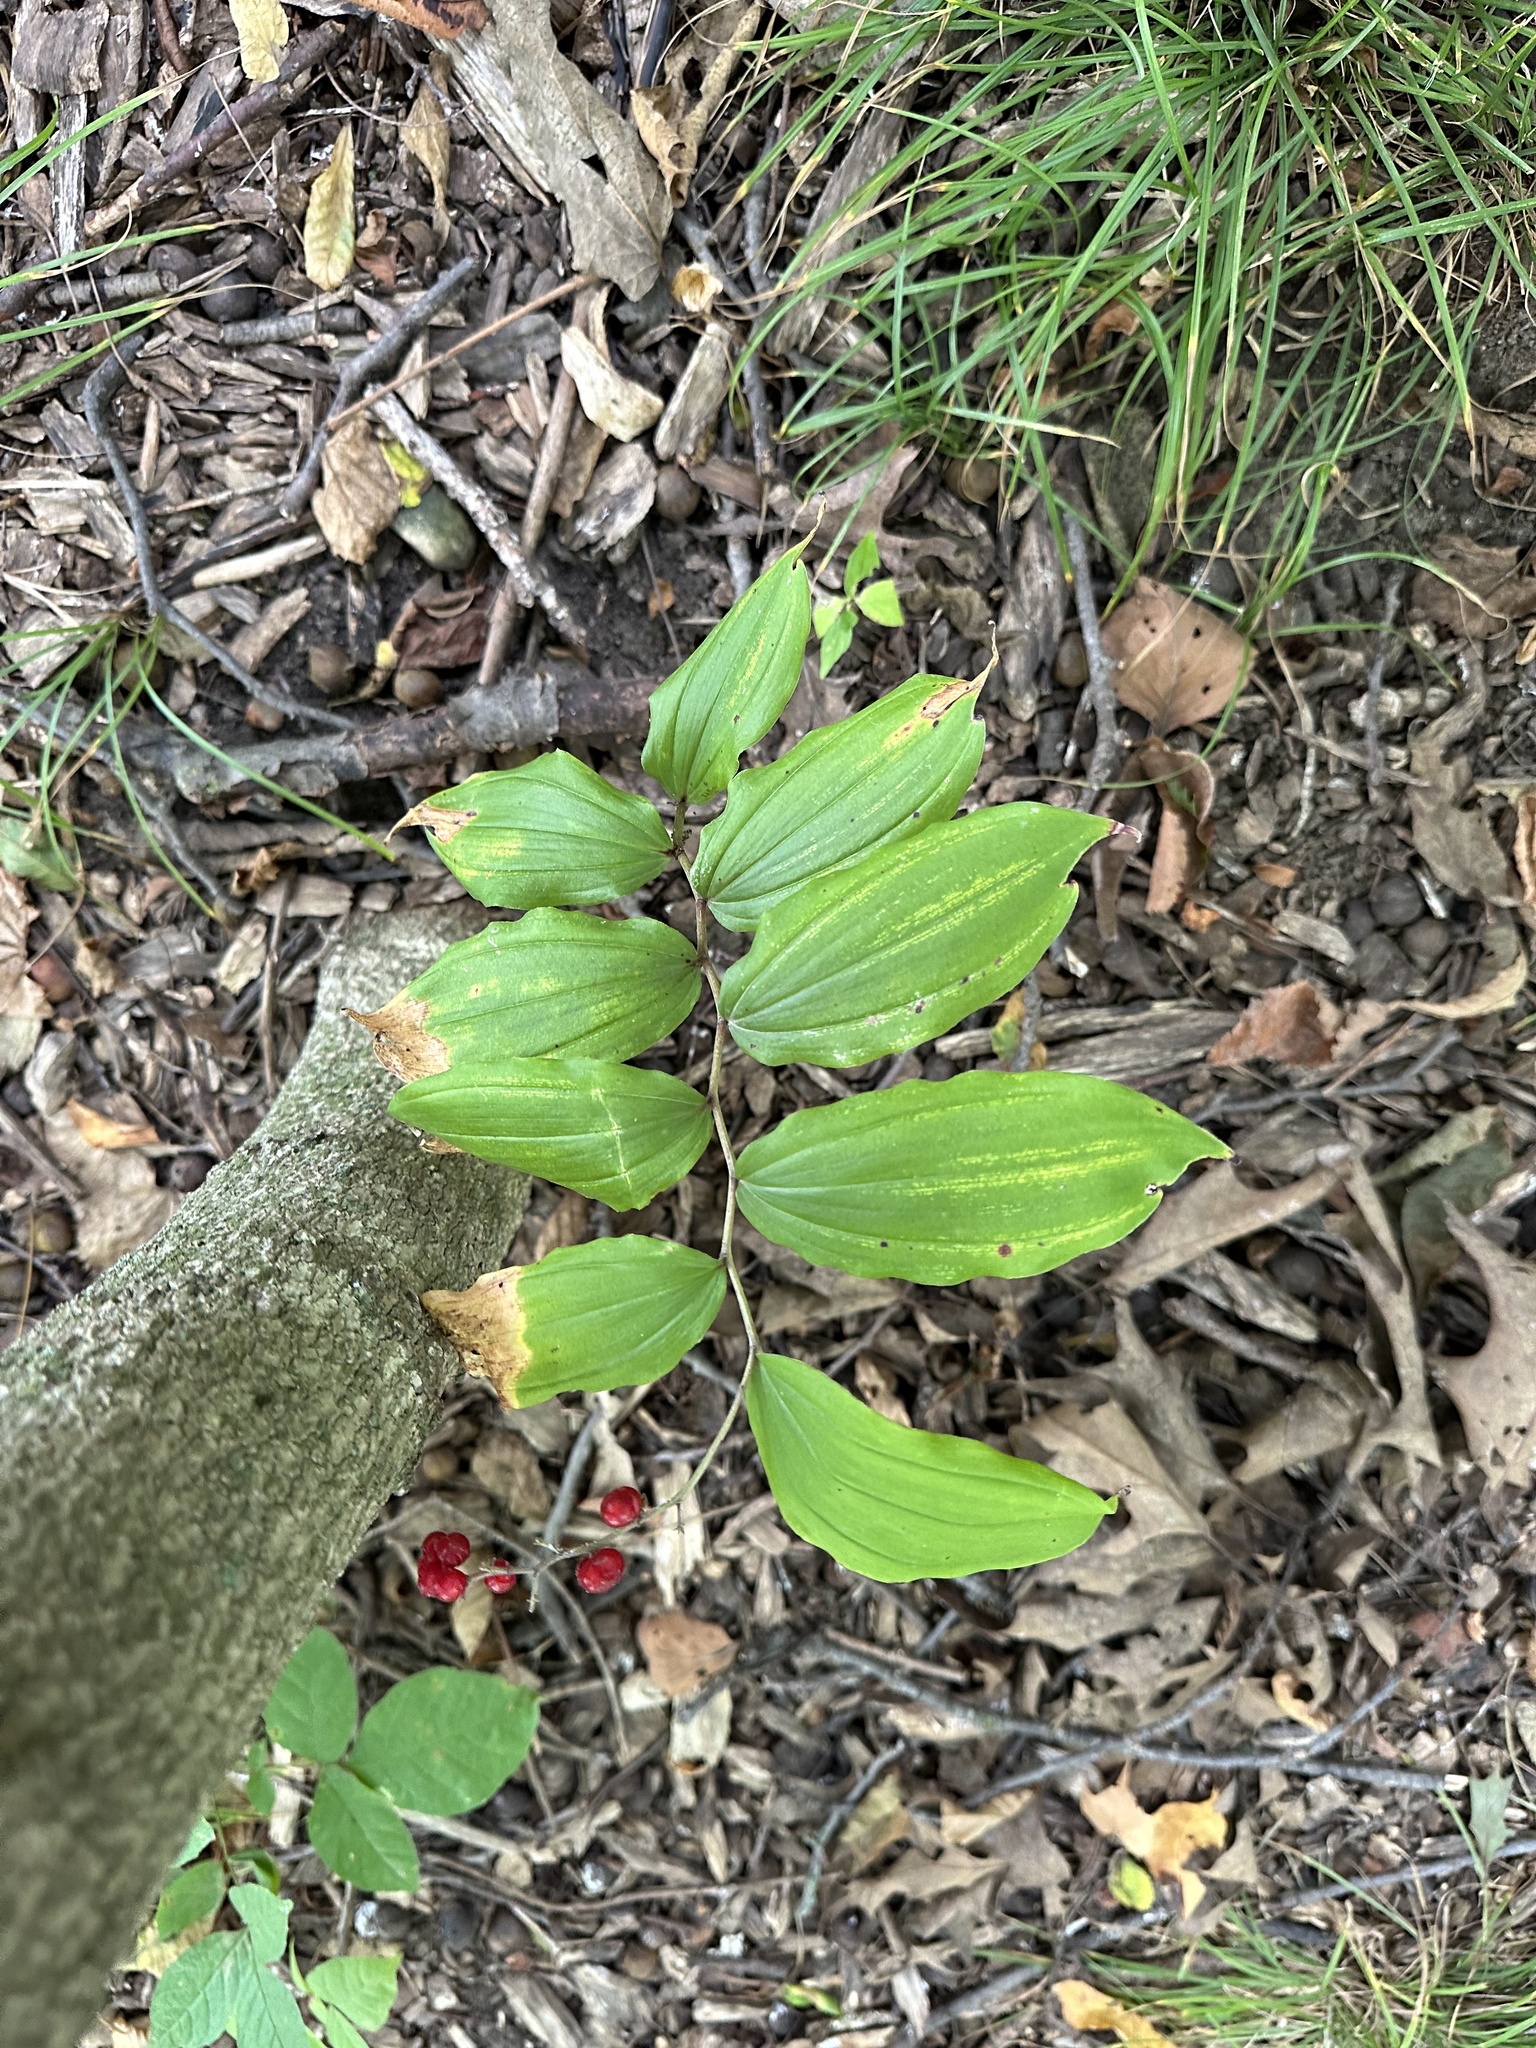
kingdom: Plantae
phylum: Tracheophyta
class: Liliopsida
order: Asparagales
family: Asparagaceae
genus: Maianthemum
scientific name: Maianthemum racemosum
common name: False spikenard
